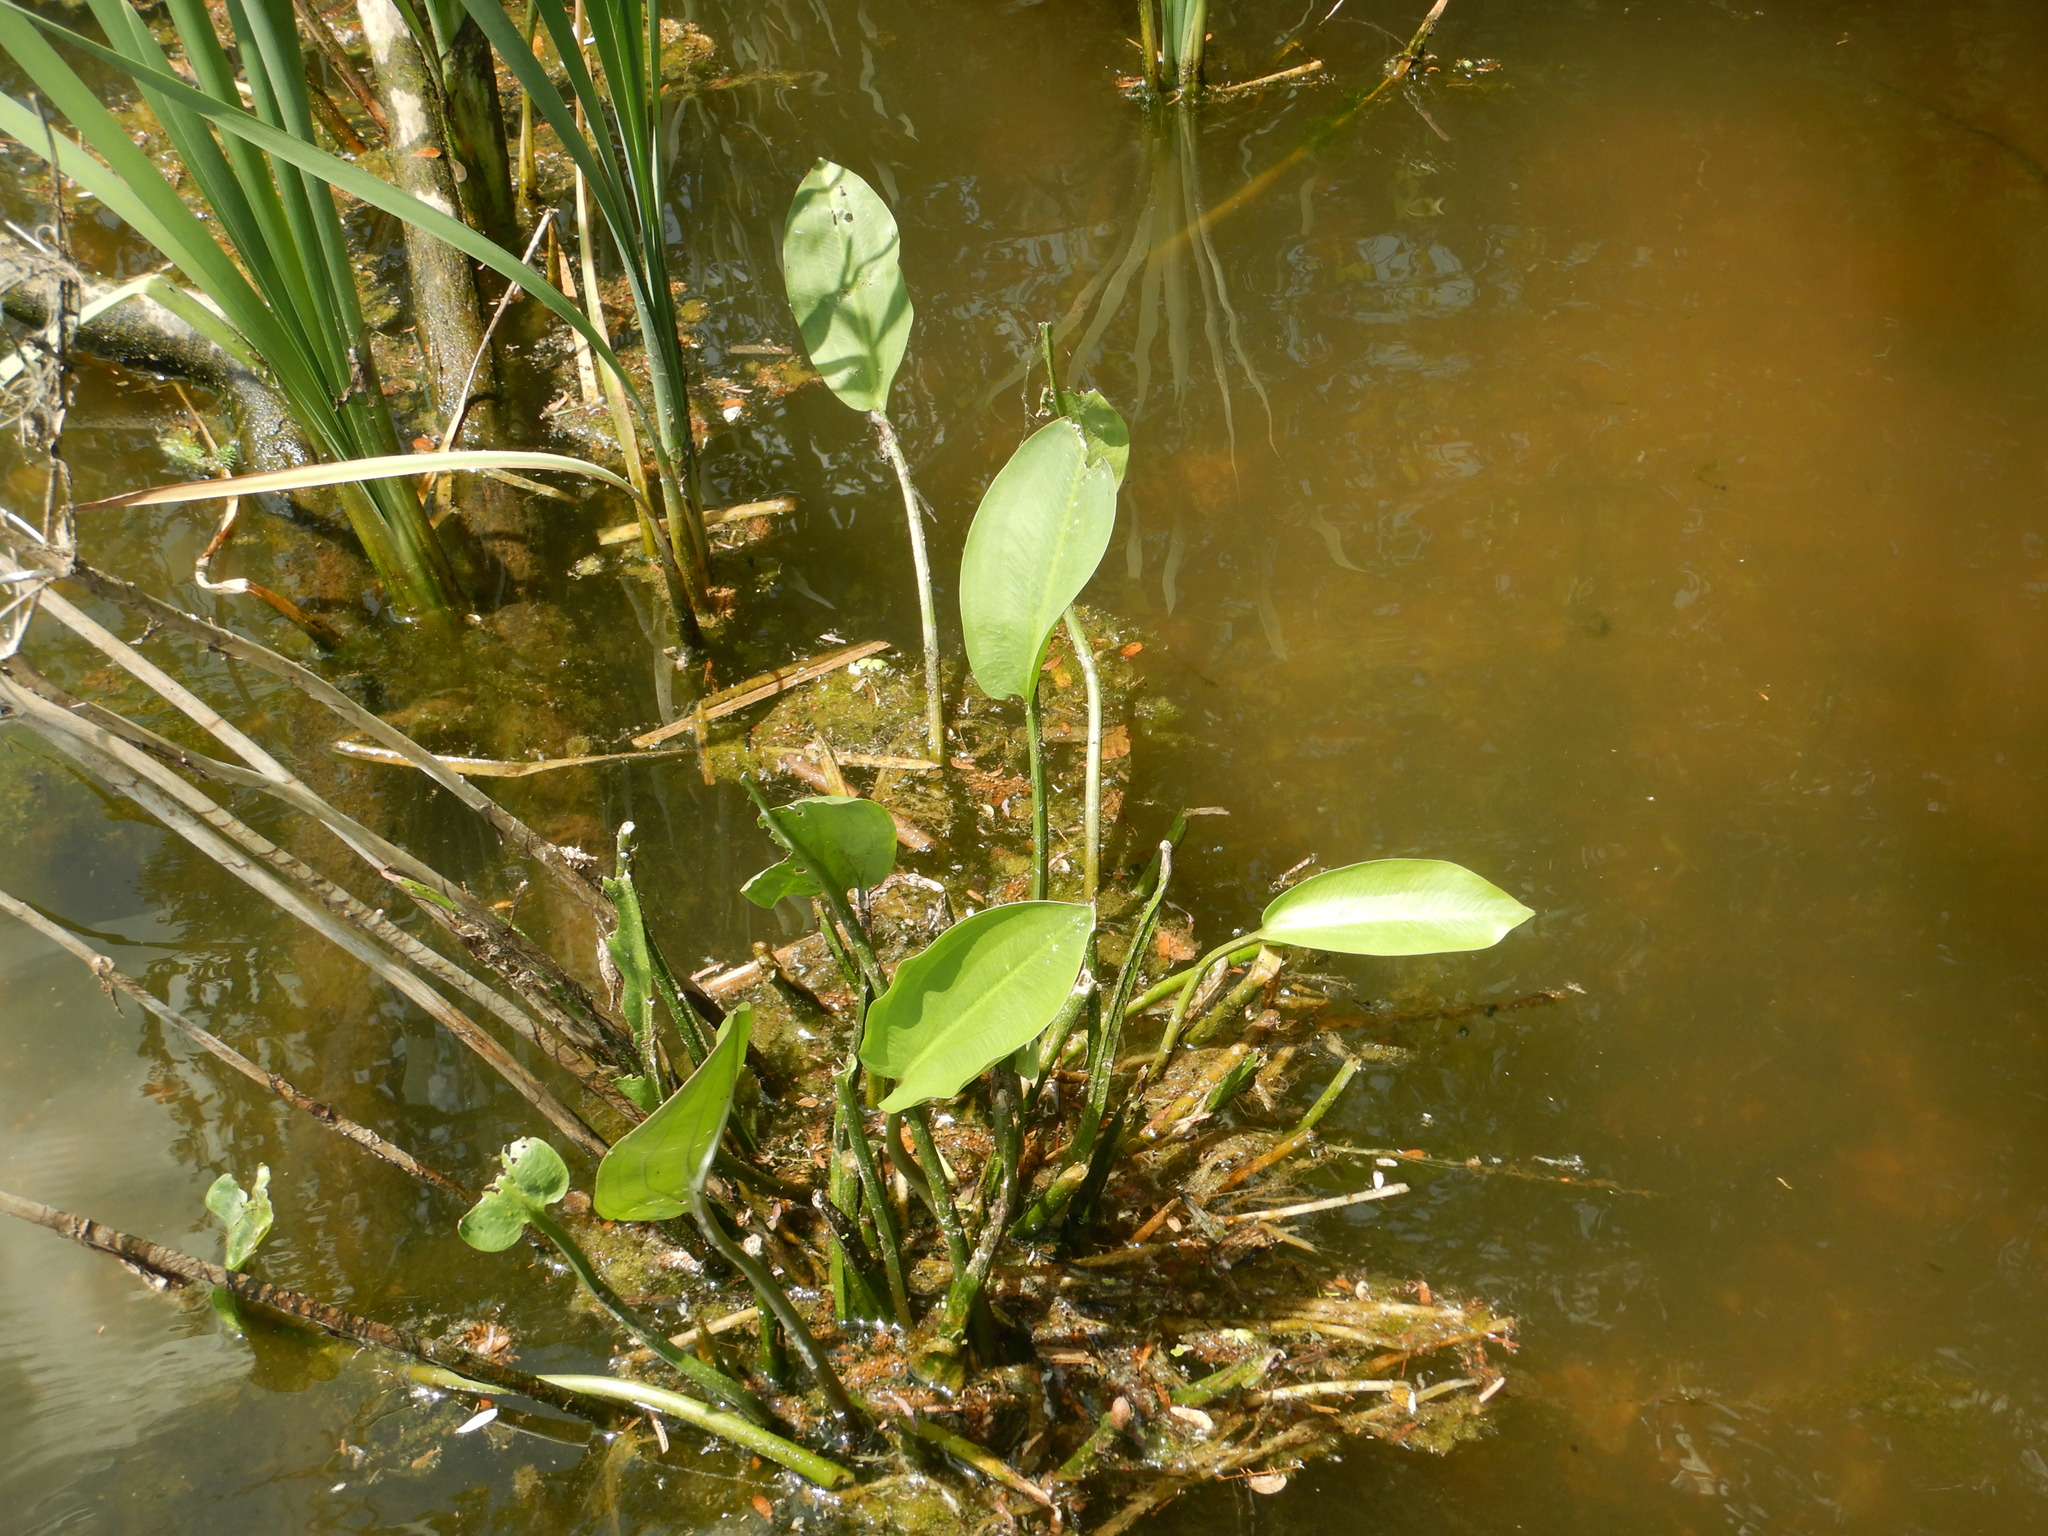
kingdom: Plantae
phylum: Tracheophyta
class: Liliopsida
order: Alismatales
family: Alismataceae
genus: Alisma
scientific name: Alisma plantago-aquatica
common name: Water-plantain
